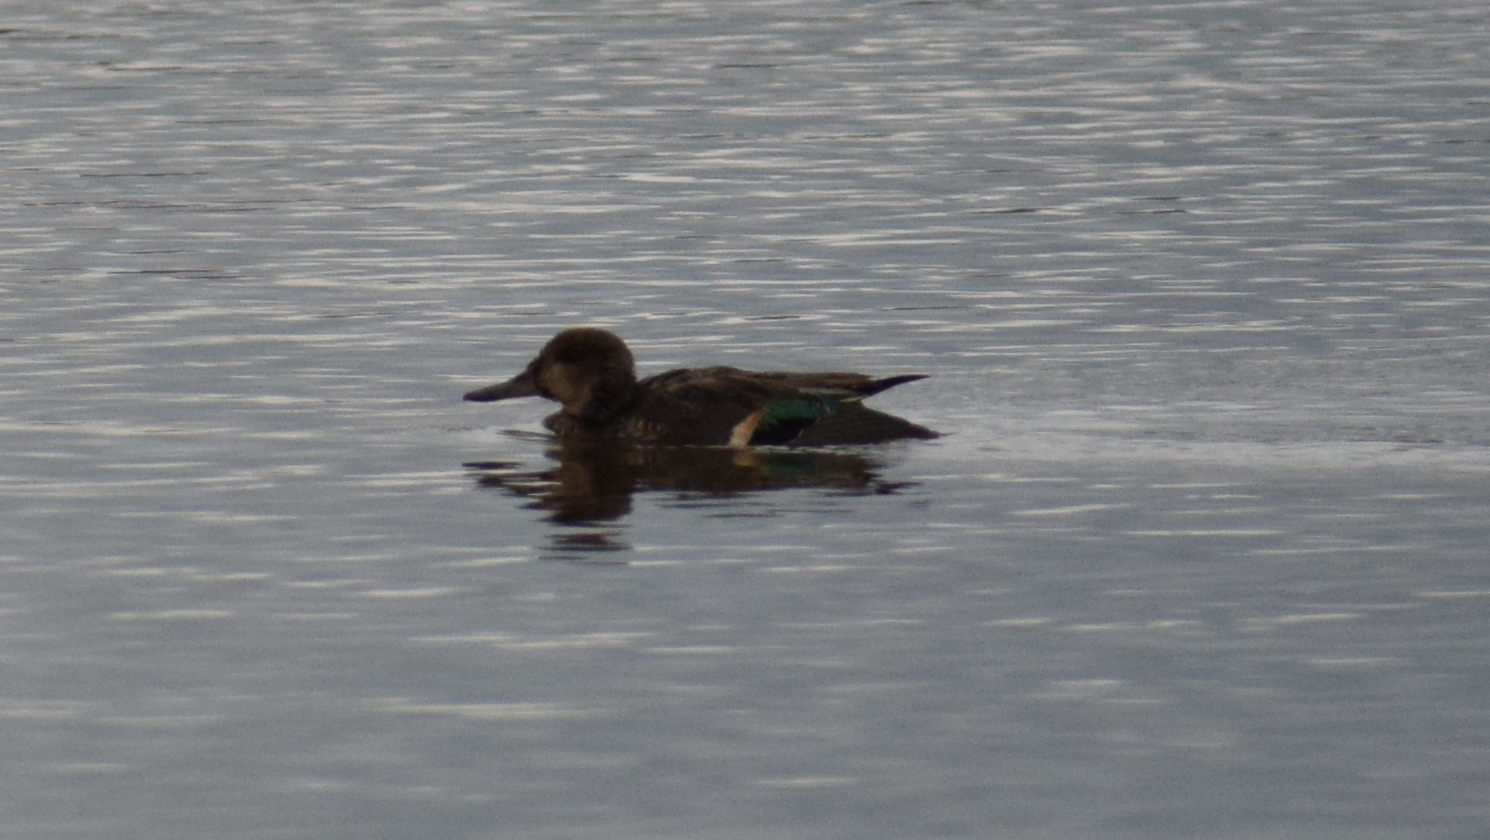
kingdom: Animalia
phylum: Chordata
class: Aves
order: Anseriformes
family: Anatidae
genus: Anas
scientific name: Anas crecca
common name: Eurasian teal
